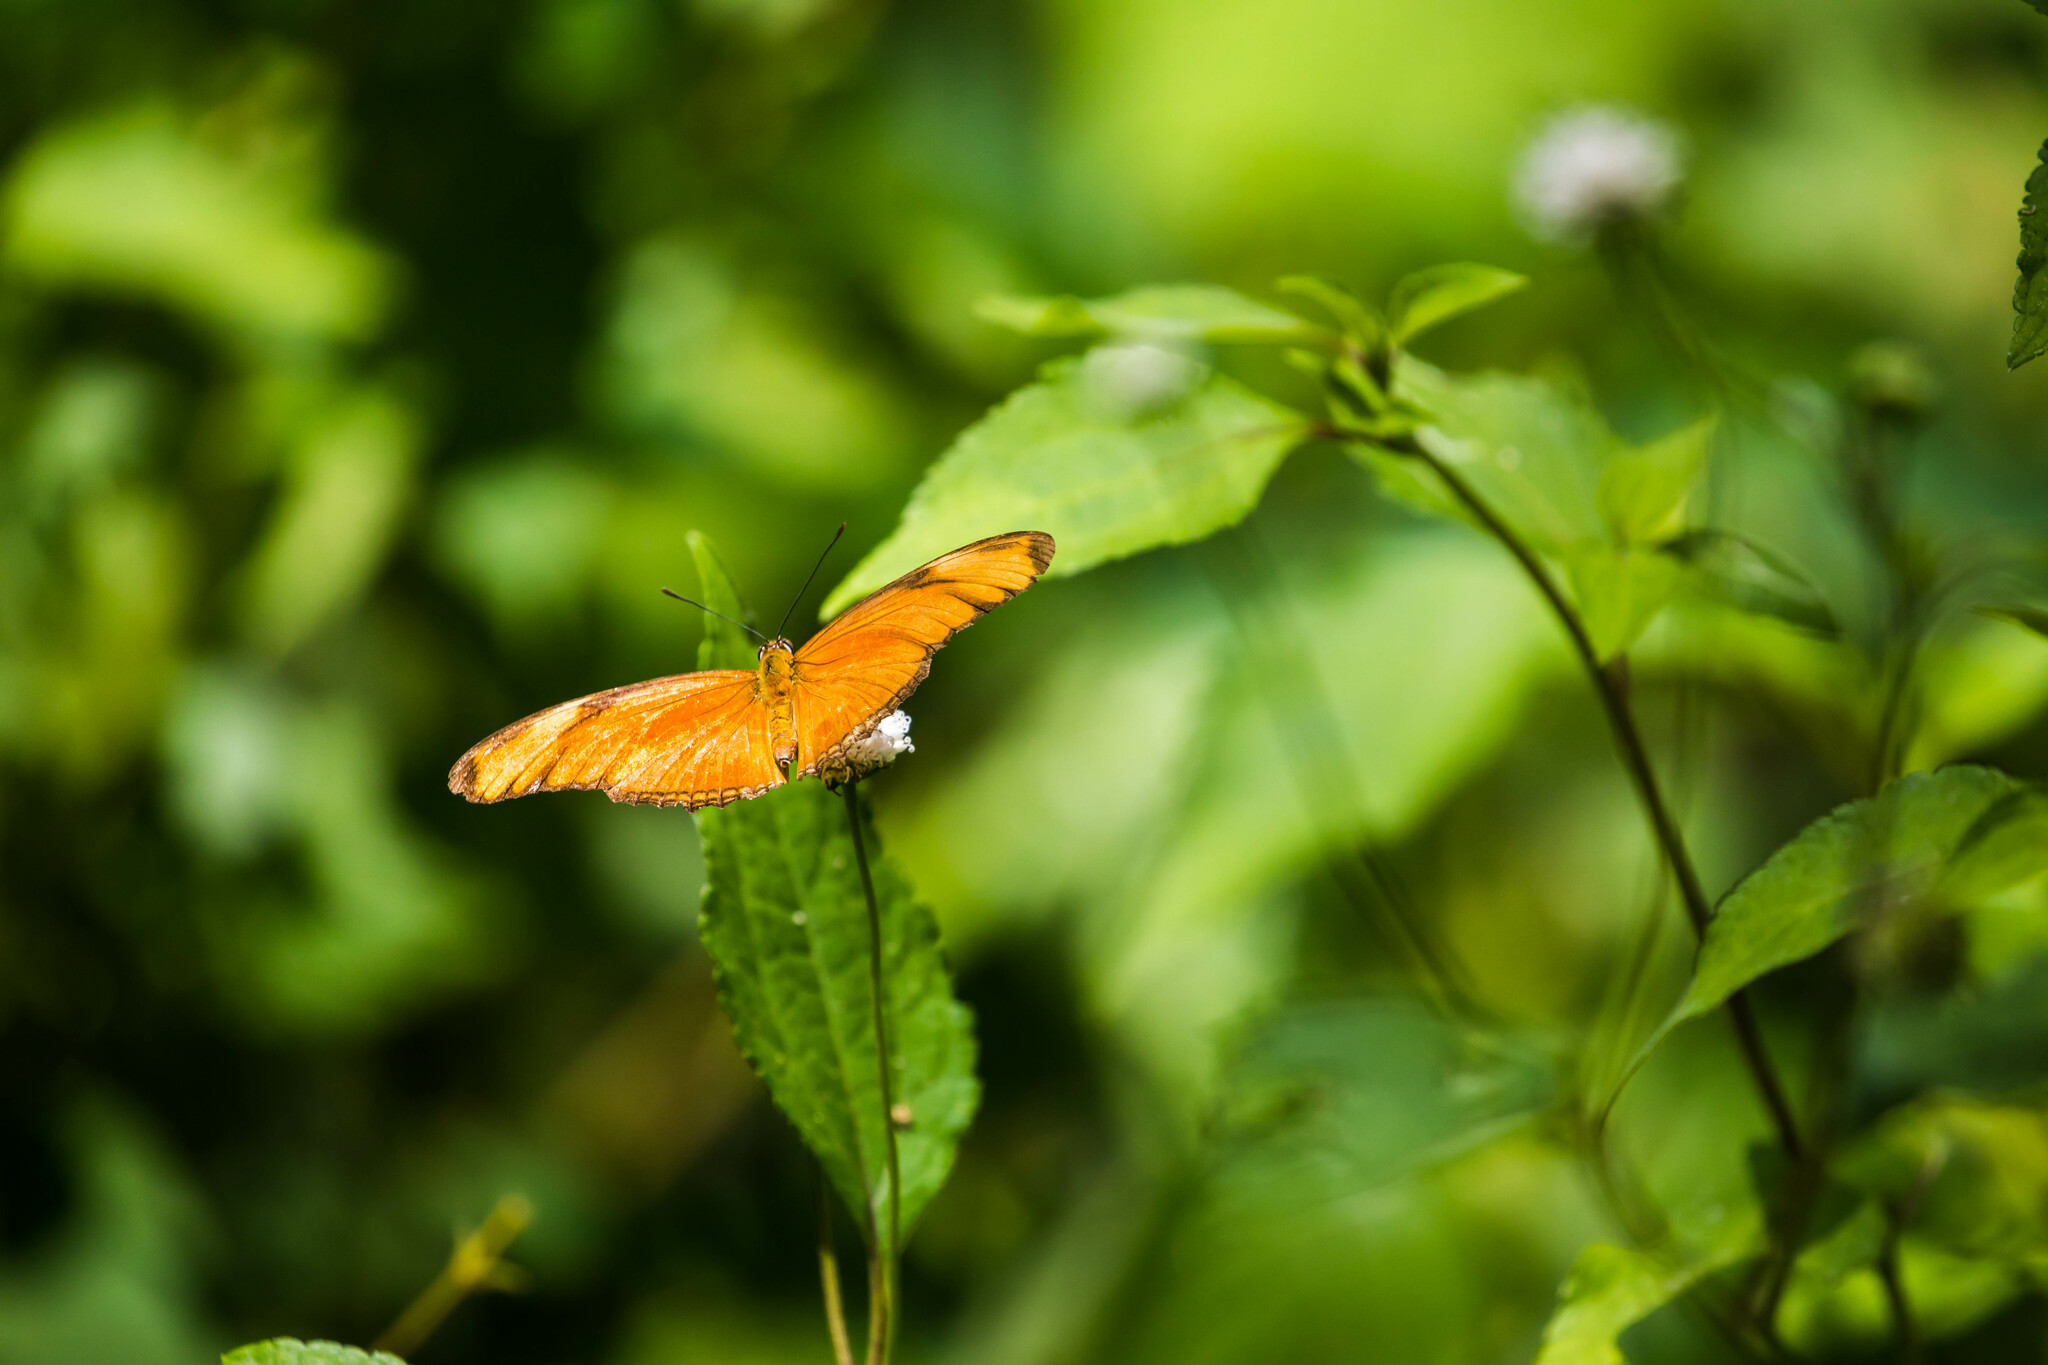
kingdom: Animalia
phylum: Arthropoda
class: Insecta
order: Lepidoptera
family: Nymphalidae
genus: Dryas
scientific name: Dryas iulia
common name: Flambeau
